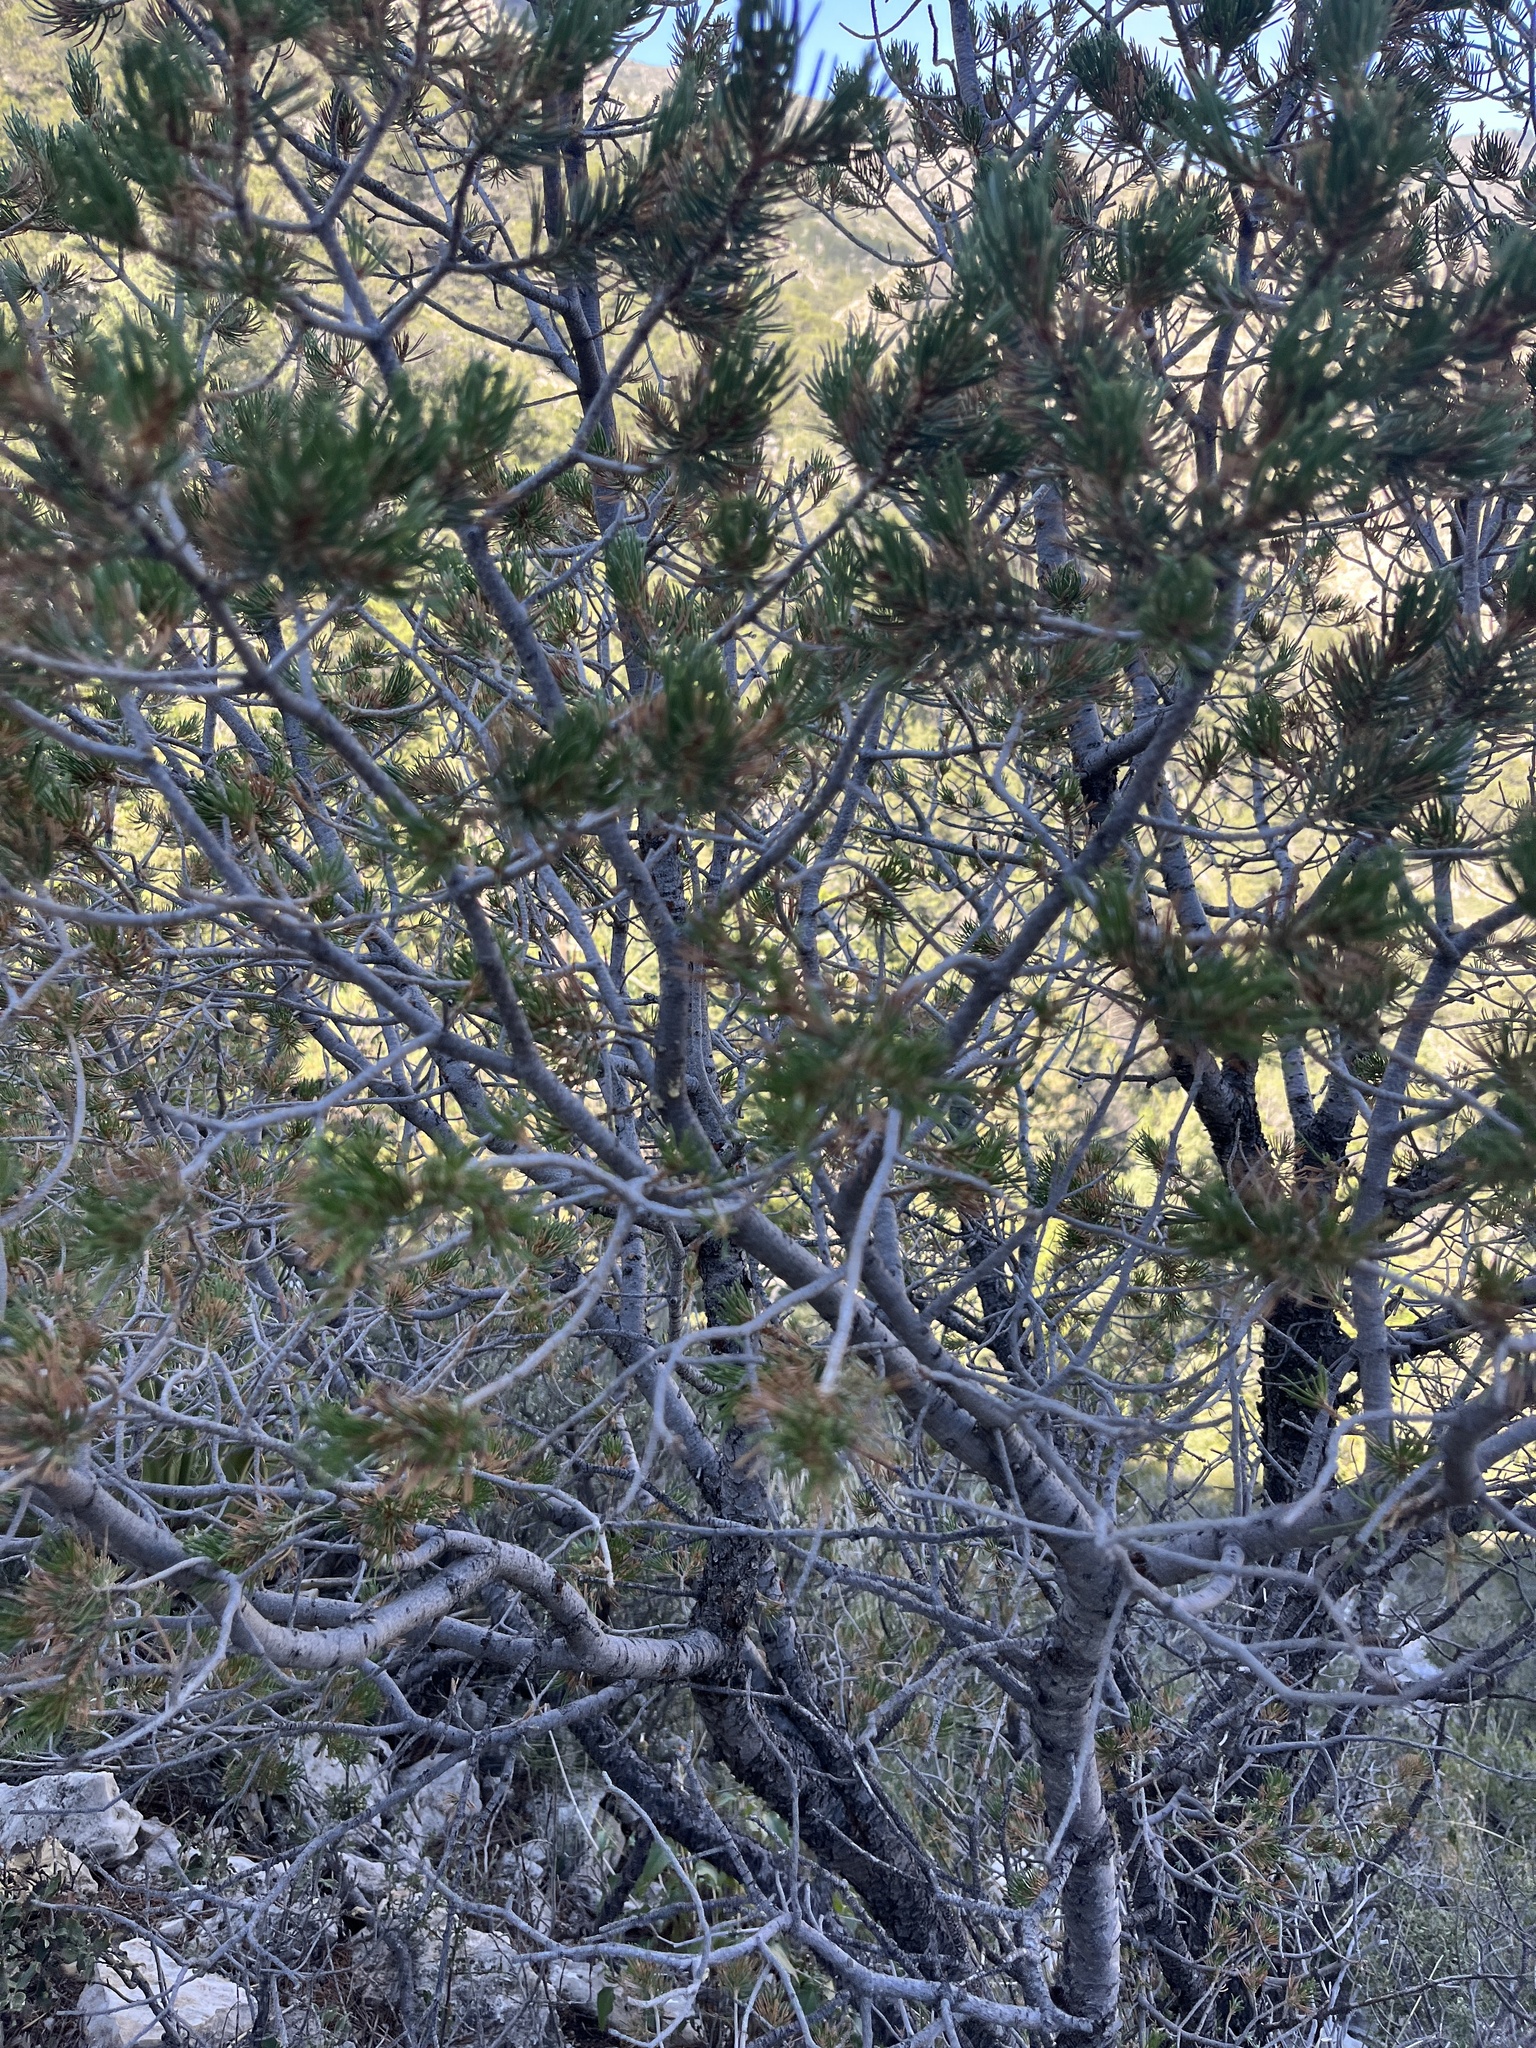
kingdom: Plantae
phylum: Tracheophyta
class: Pinopsida
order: Pinales
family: Pinaceae
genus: Pinus
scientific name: Pinus edulis
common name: Colorado pinyon
